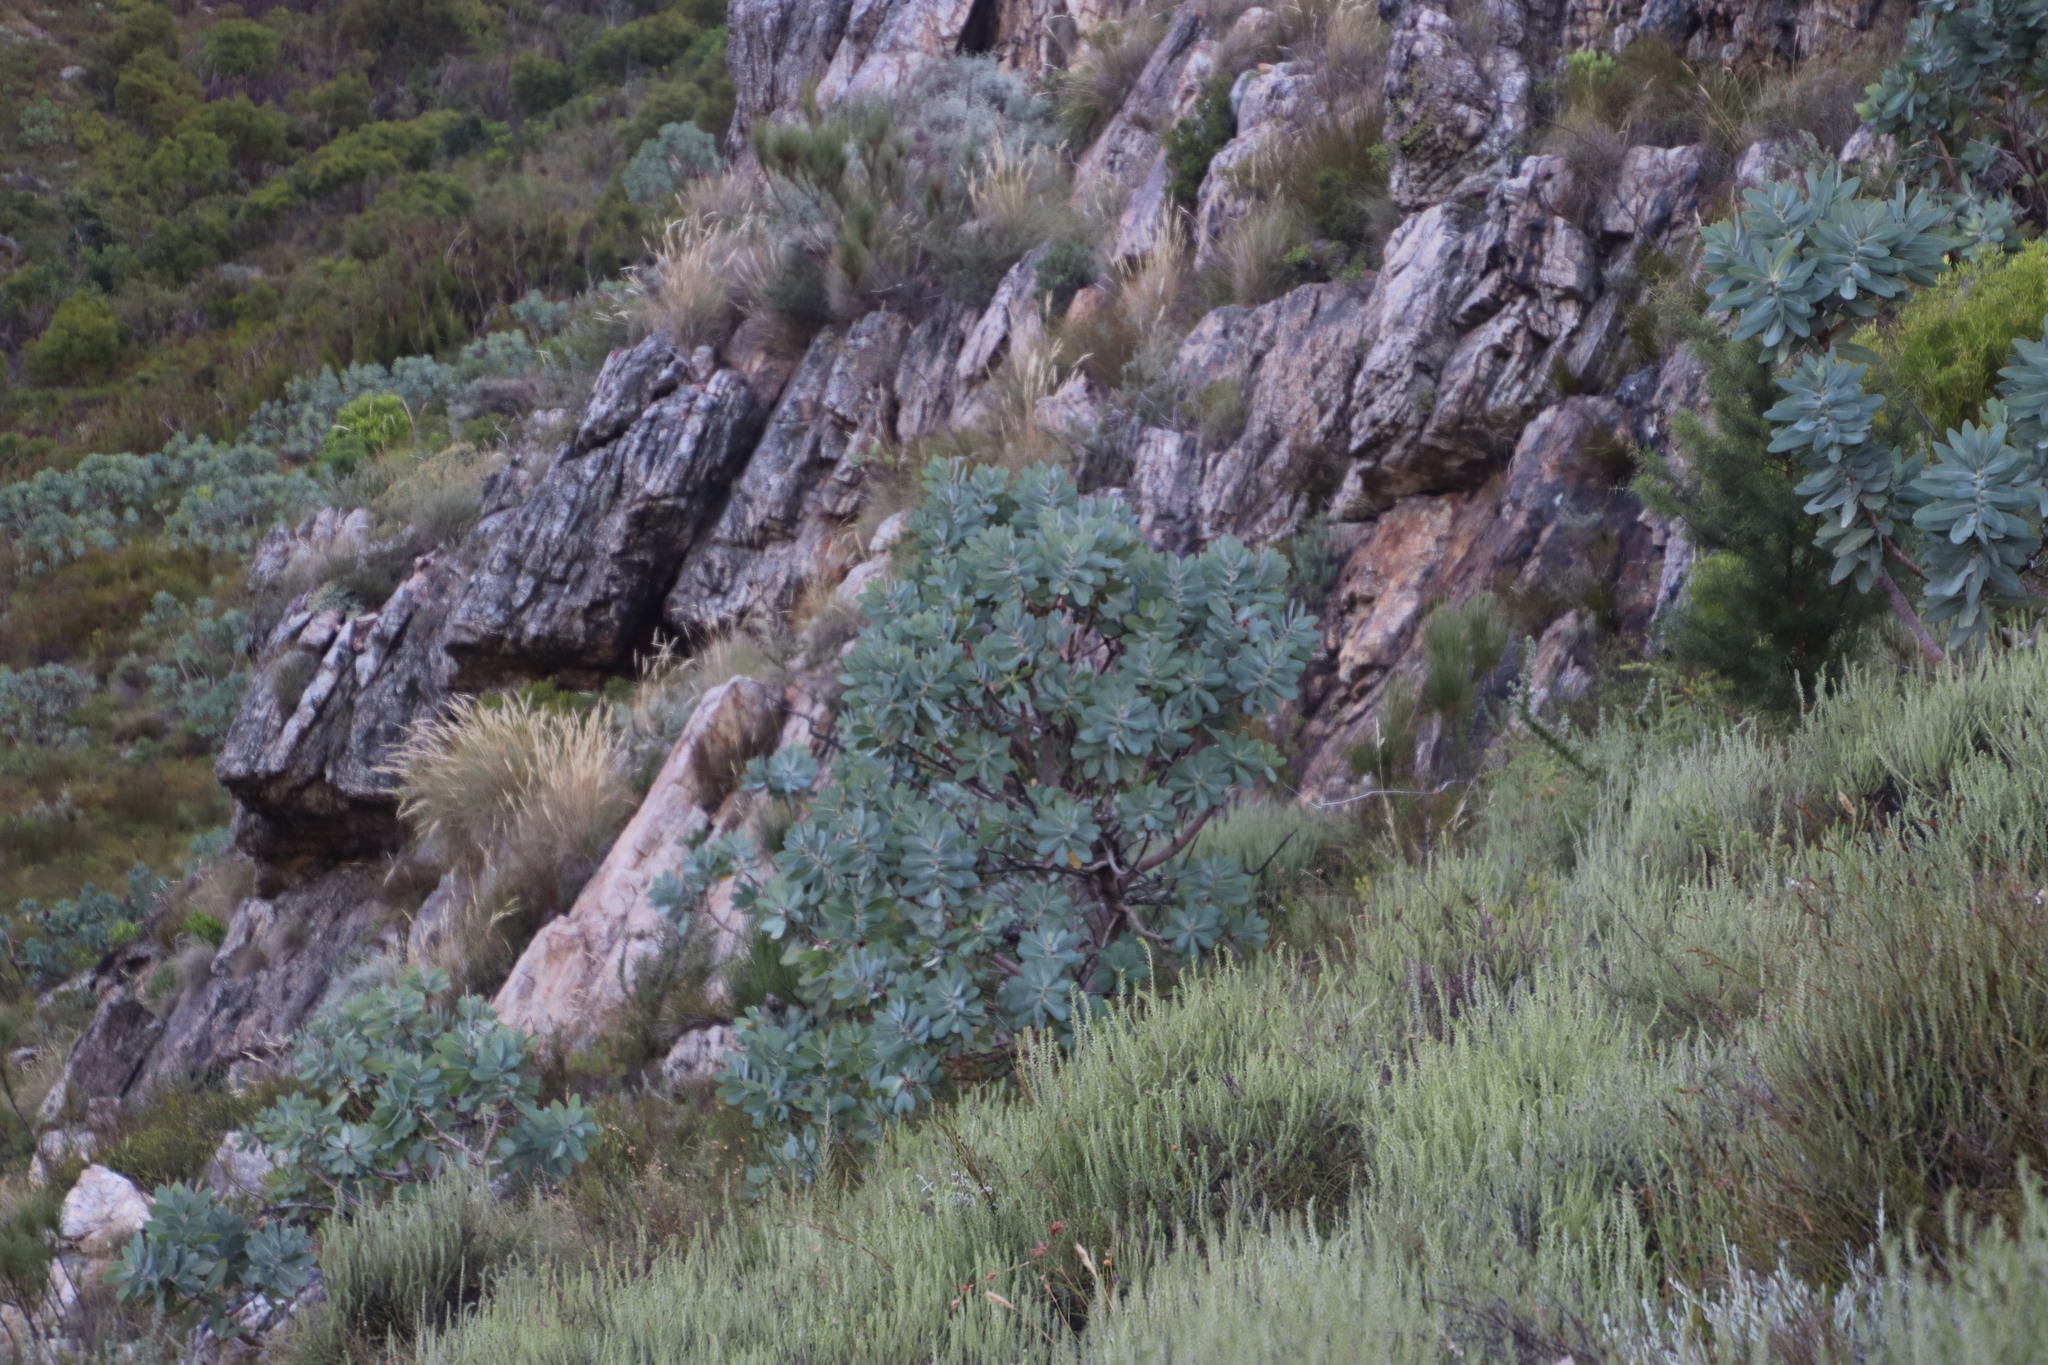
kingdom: Plantae
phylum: Tracheophyta
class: Magnoliopsida
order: Proteales
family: Proteaceae
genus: Protea
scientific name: Protea nitida
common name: Tree protea
